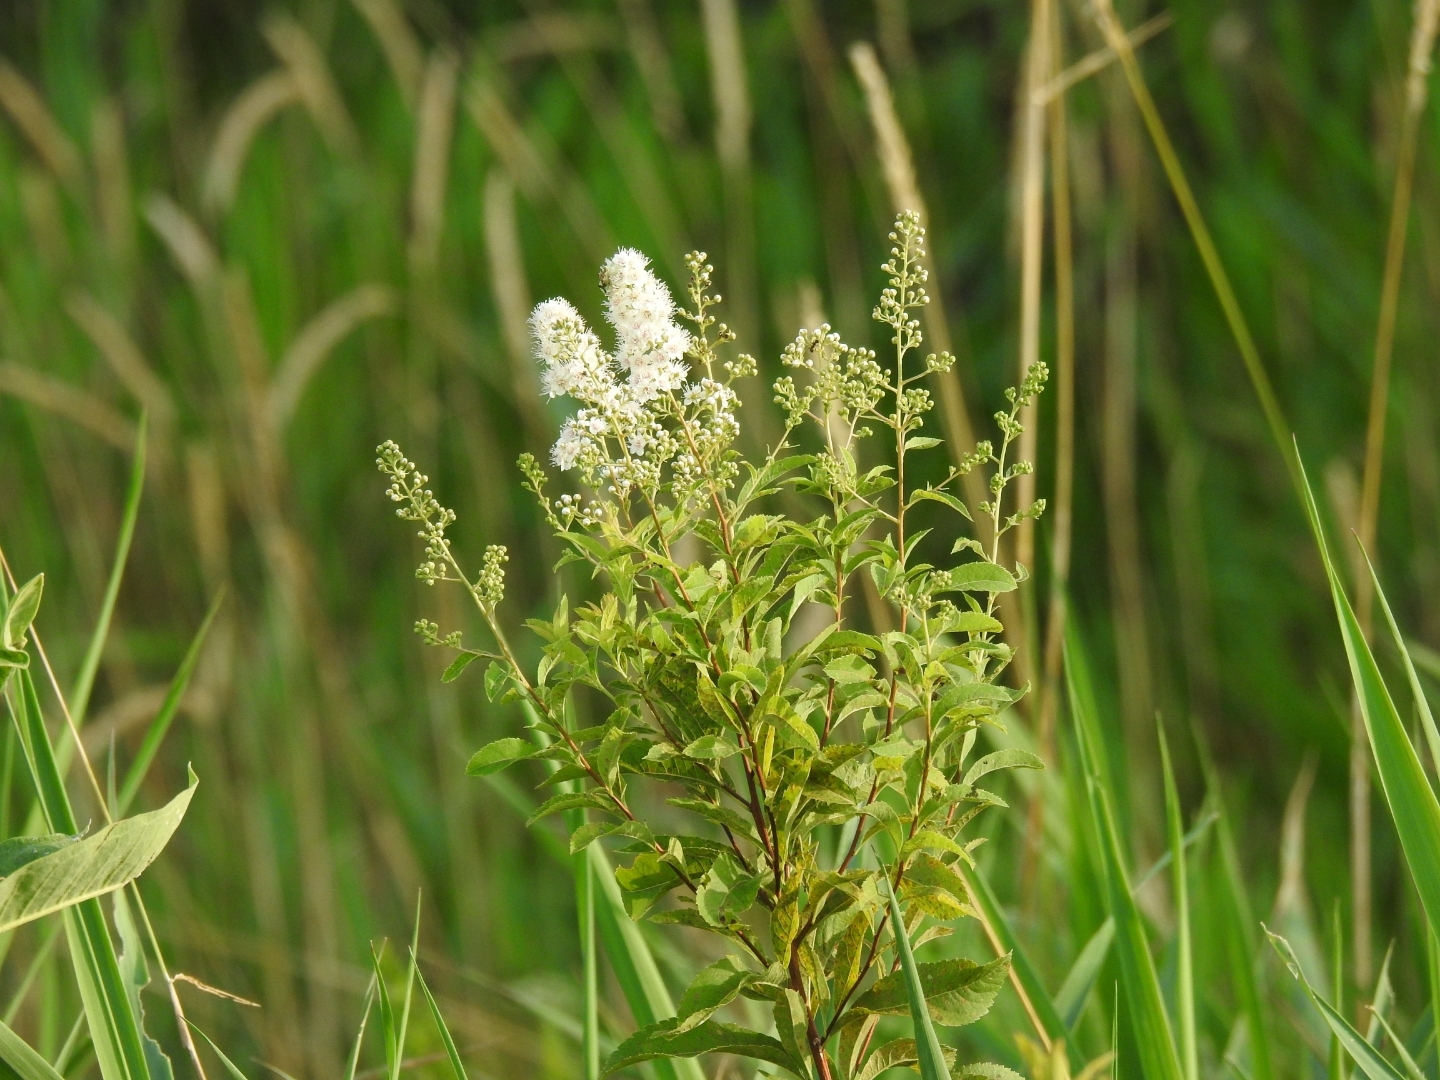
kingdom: Plantae
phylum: Tracheophyta
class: Magnoliopsida
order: Rosales
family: Rosaceae
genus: Spiraea
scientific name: Spiraea alba
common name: Pale bridewort
